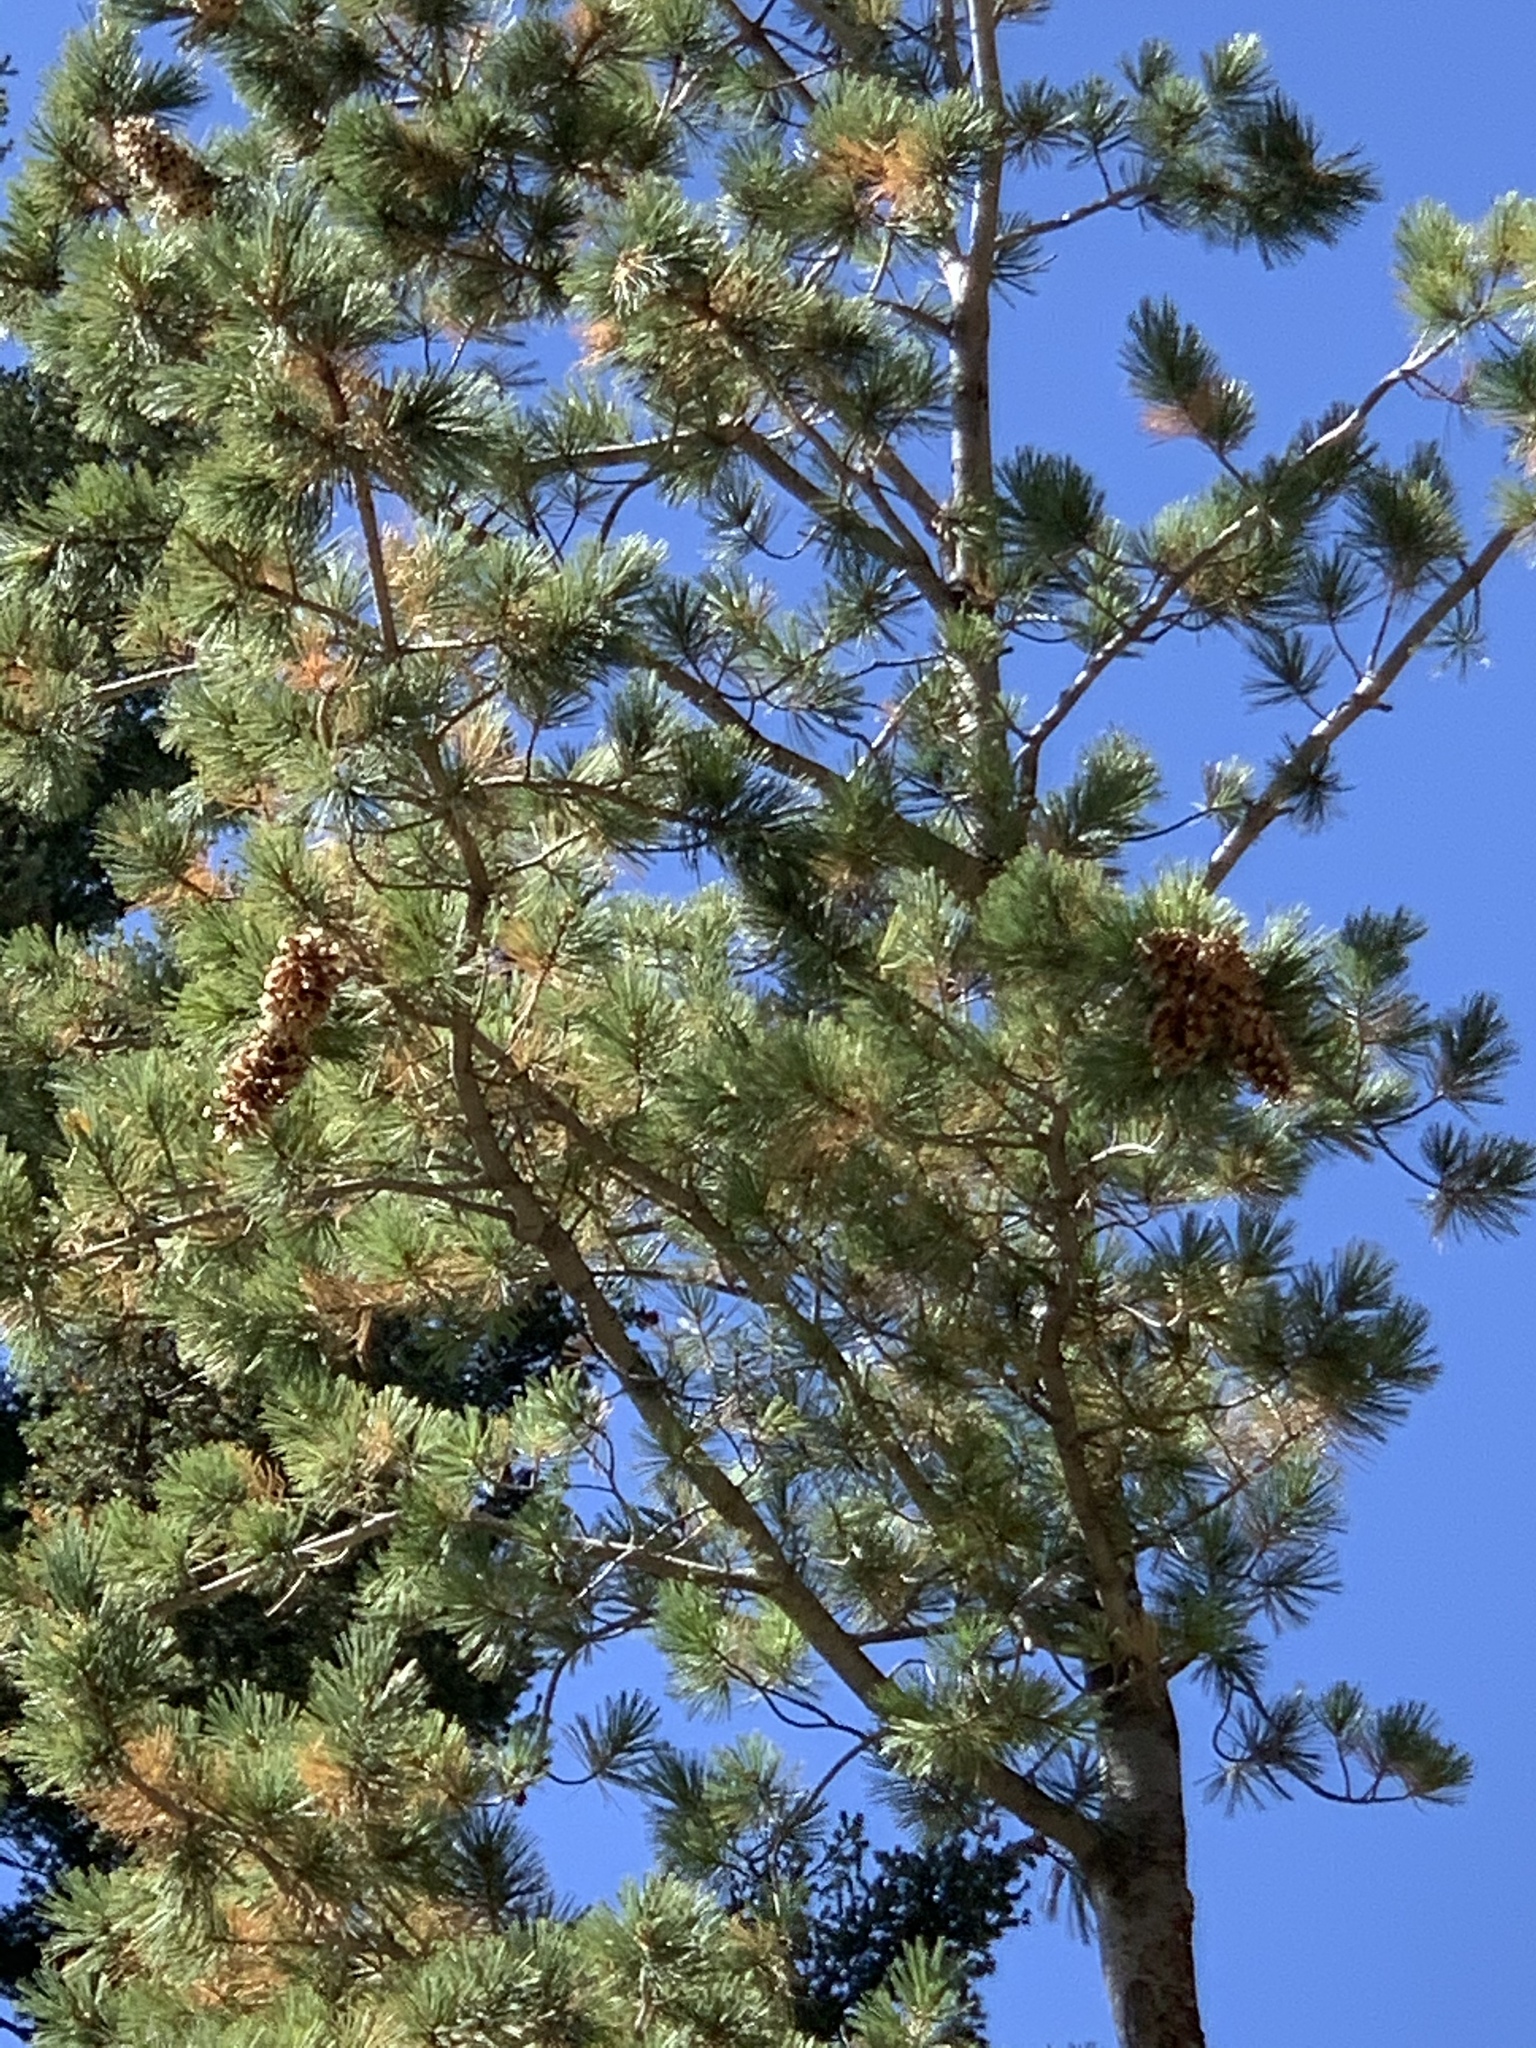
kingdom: Plantae
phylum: Tracheophyta
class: Pinopsida
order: Pinales
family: Pinaceae
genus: Pinus
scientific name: Pinus strobiformis
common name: Southwestern white pine
